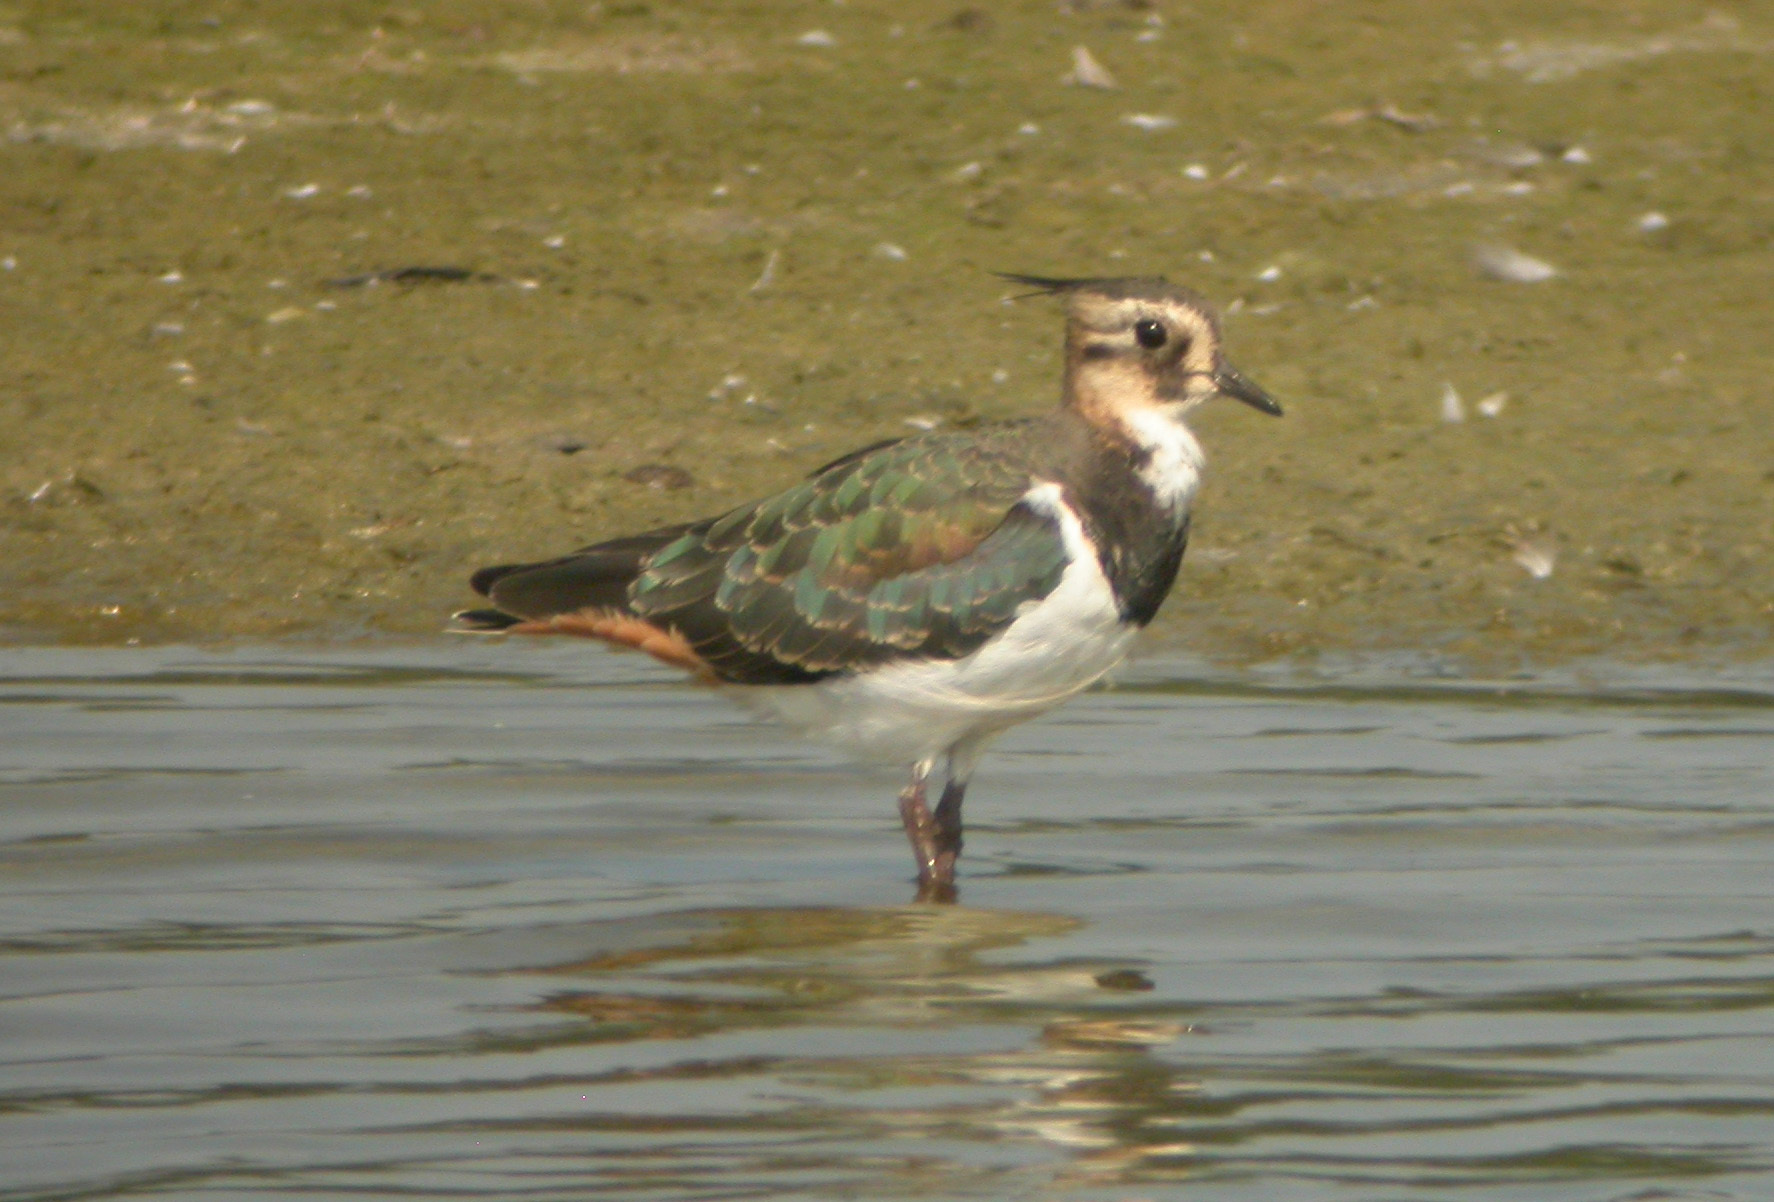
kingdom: Animalia
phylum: Chordata
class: Aves
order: Charadriiformes
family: Charadriidae
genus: Vanellus
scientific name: Vanellus vanellus
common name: Northern lapwing
